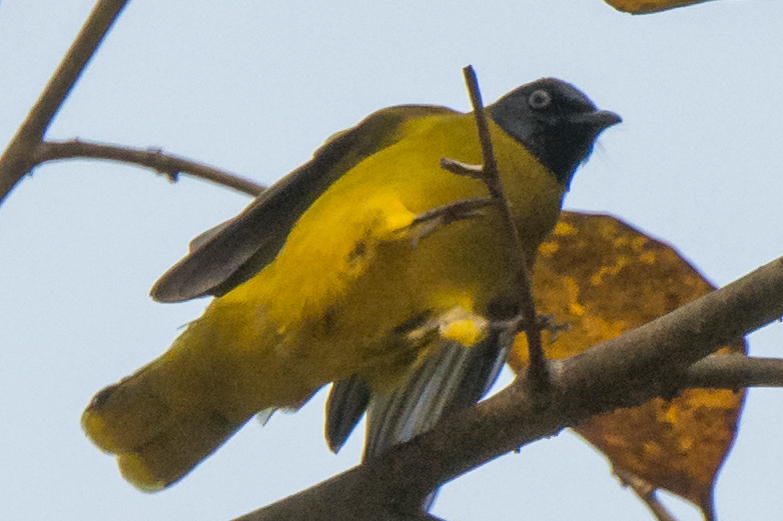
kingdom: Animalia
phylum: Chordata
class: Aves
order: Passeriformes
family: Pycnonotidae
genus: Microtarsus
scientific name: Microtarsus
